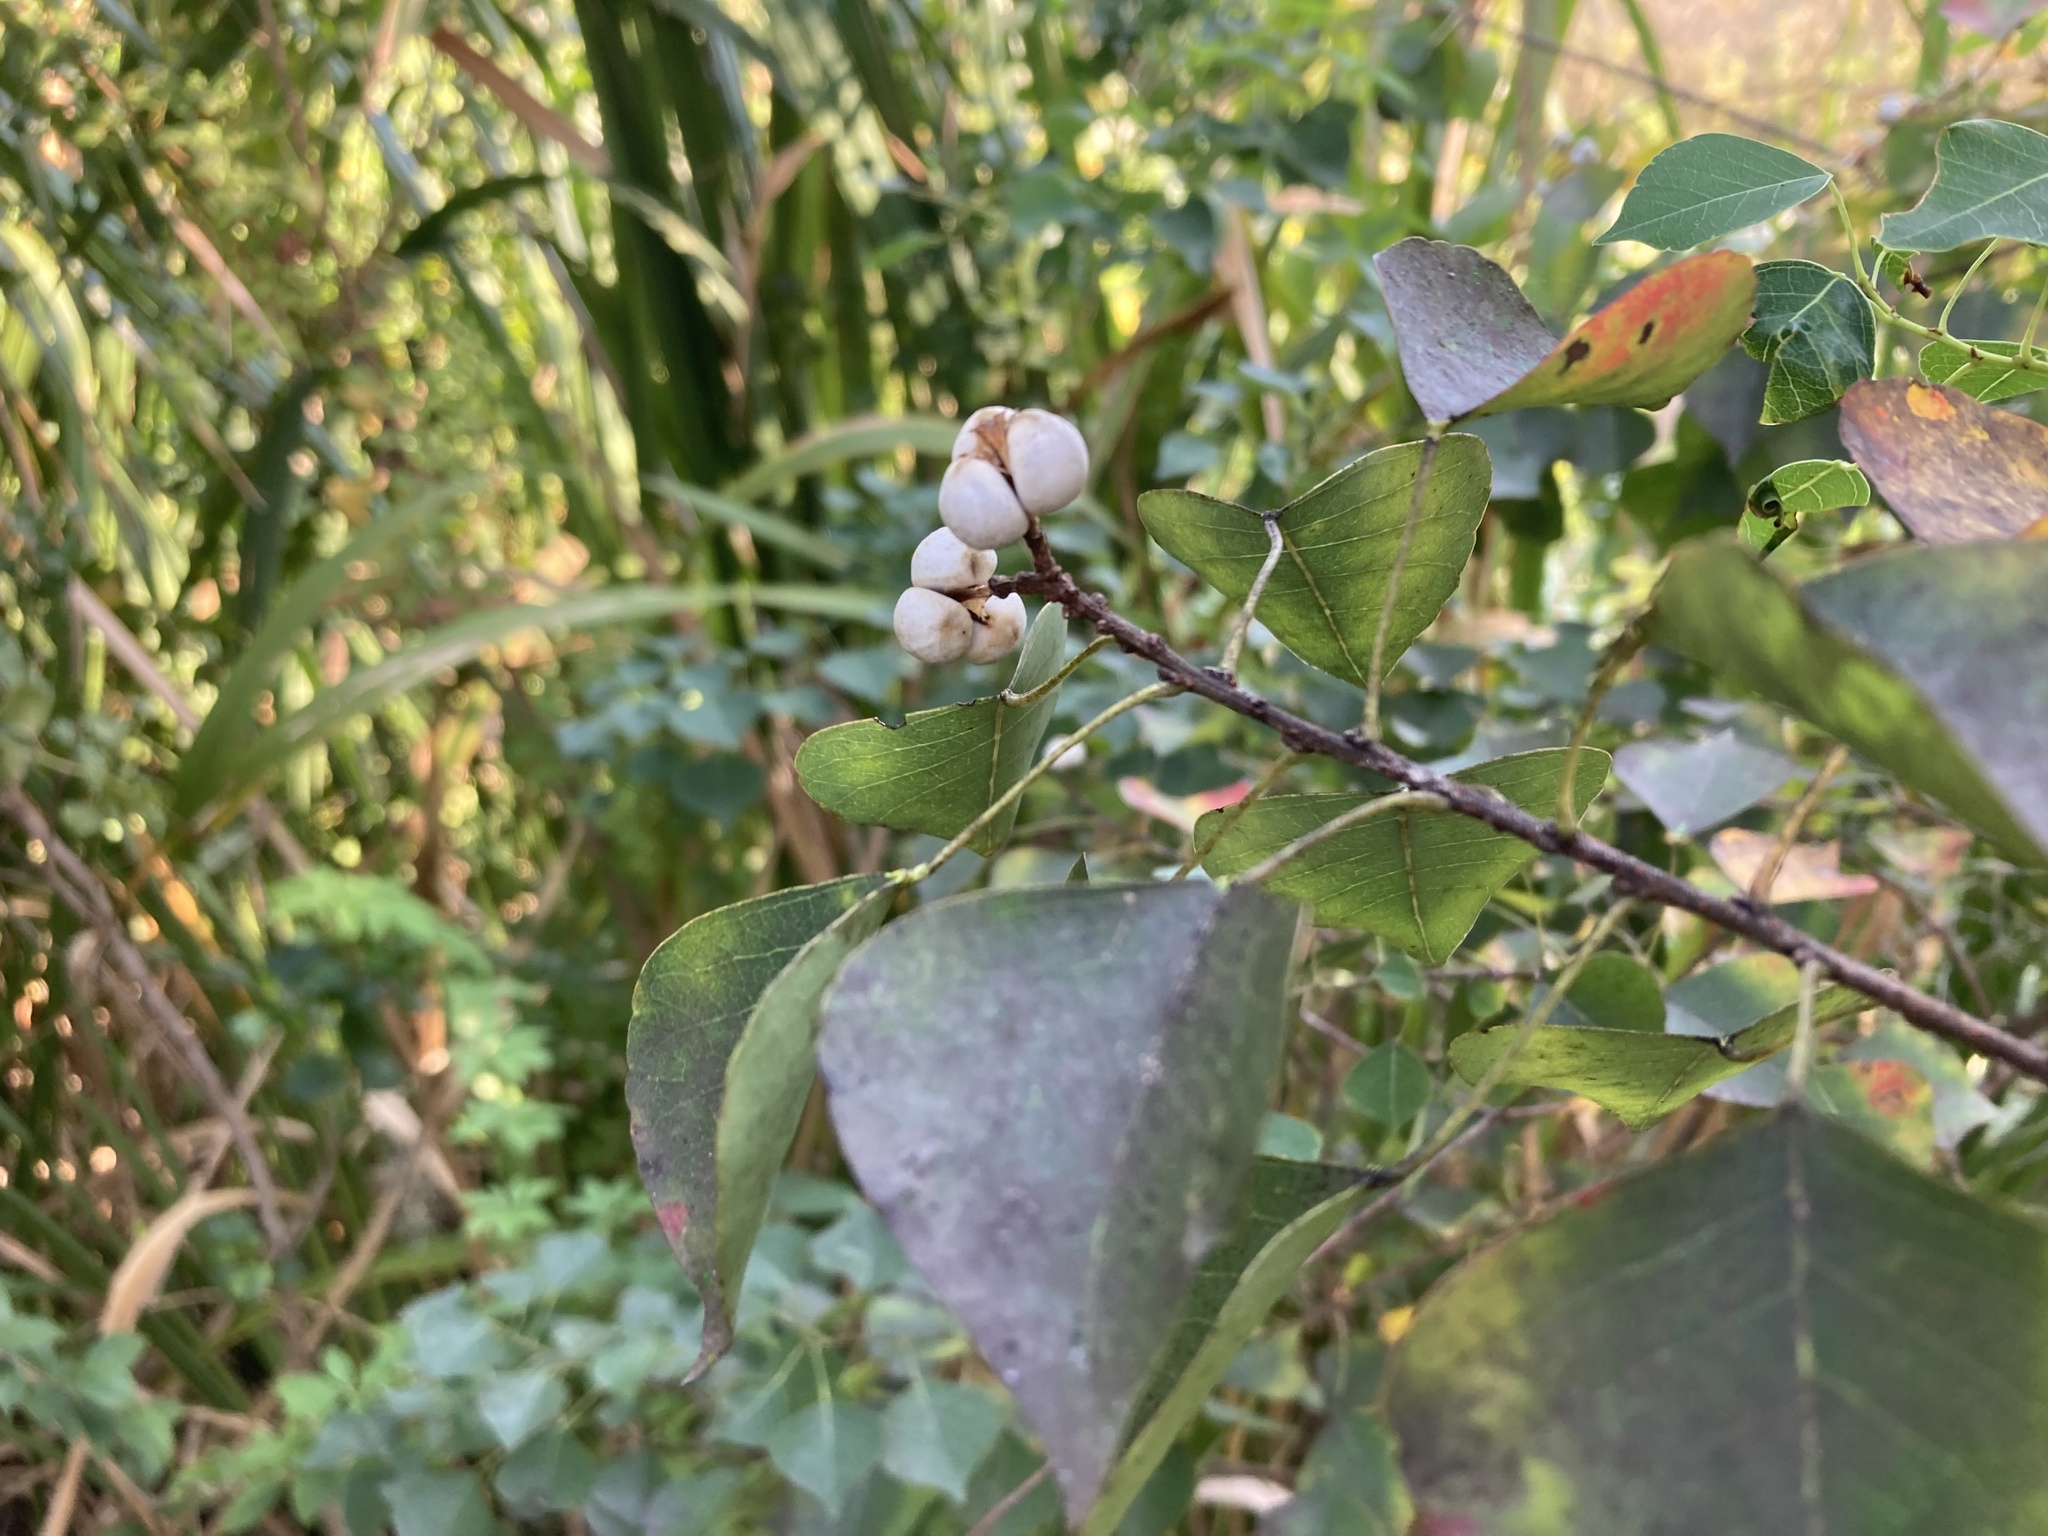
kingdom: Plantae
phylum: Tracheophyta
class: Magnoliopsida
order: Malpighiales
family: Euphorbiaceae
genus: Triadica
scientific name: Triadica sebifera
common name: Chinese tallow
